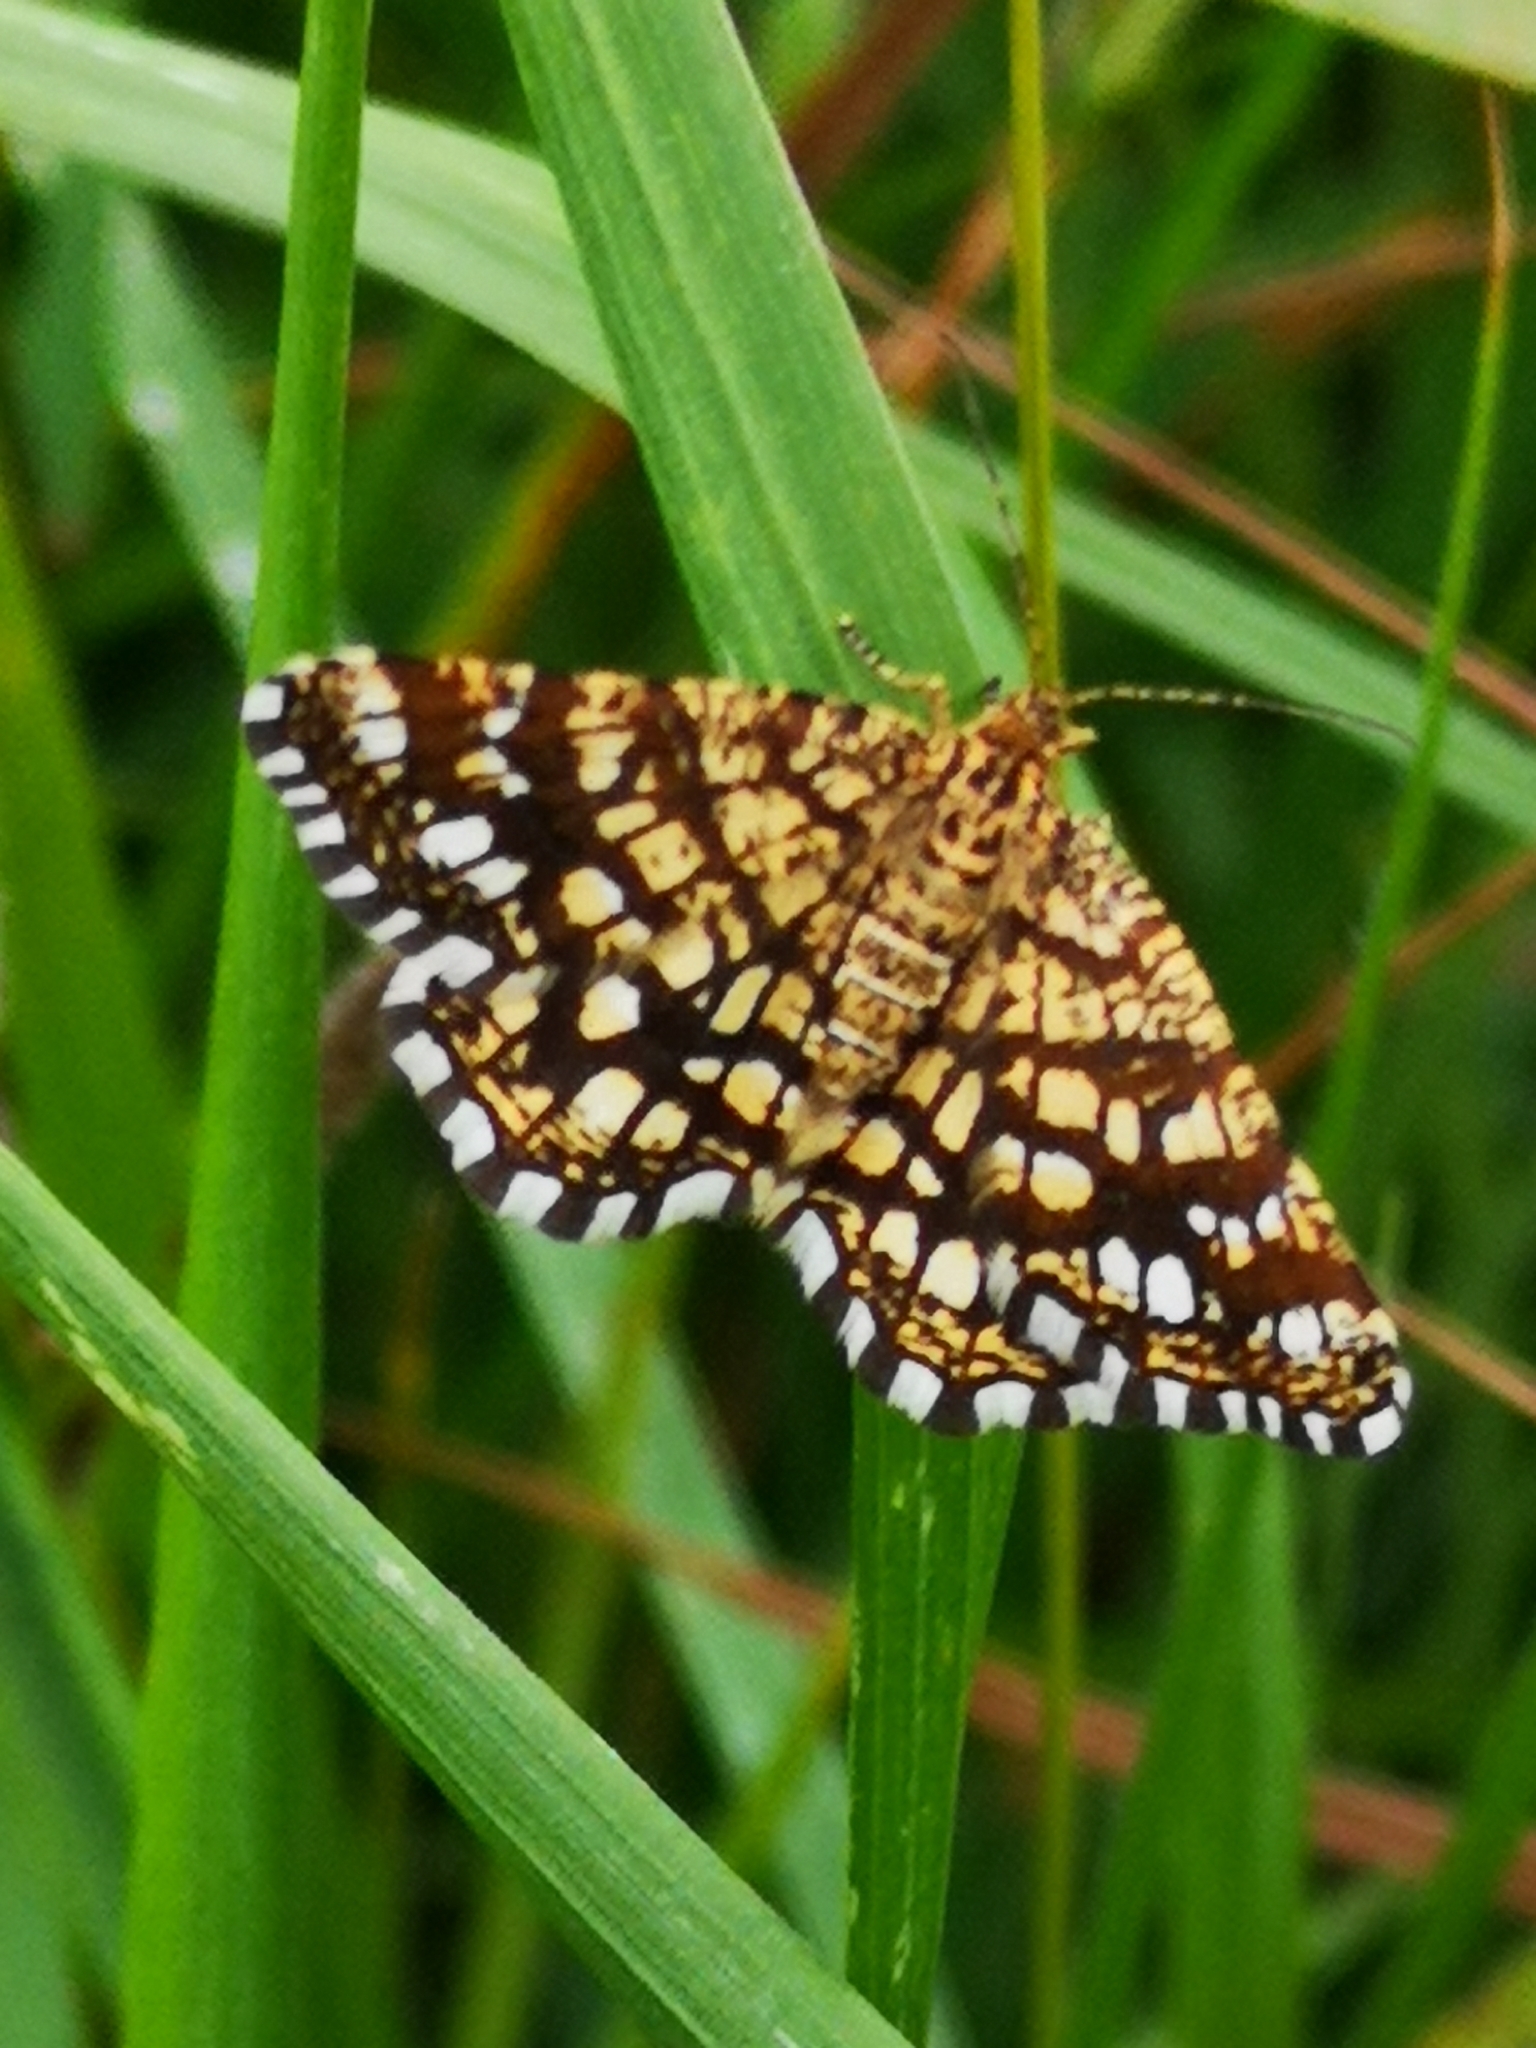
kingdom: Animalia
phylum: Arthropoda
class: Insecta
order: Lepidoptera
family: Geometridae
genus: Chiasmia
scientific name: Chiasmia clathrata
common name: Latticed heath
